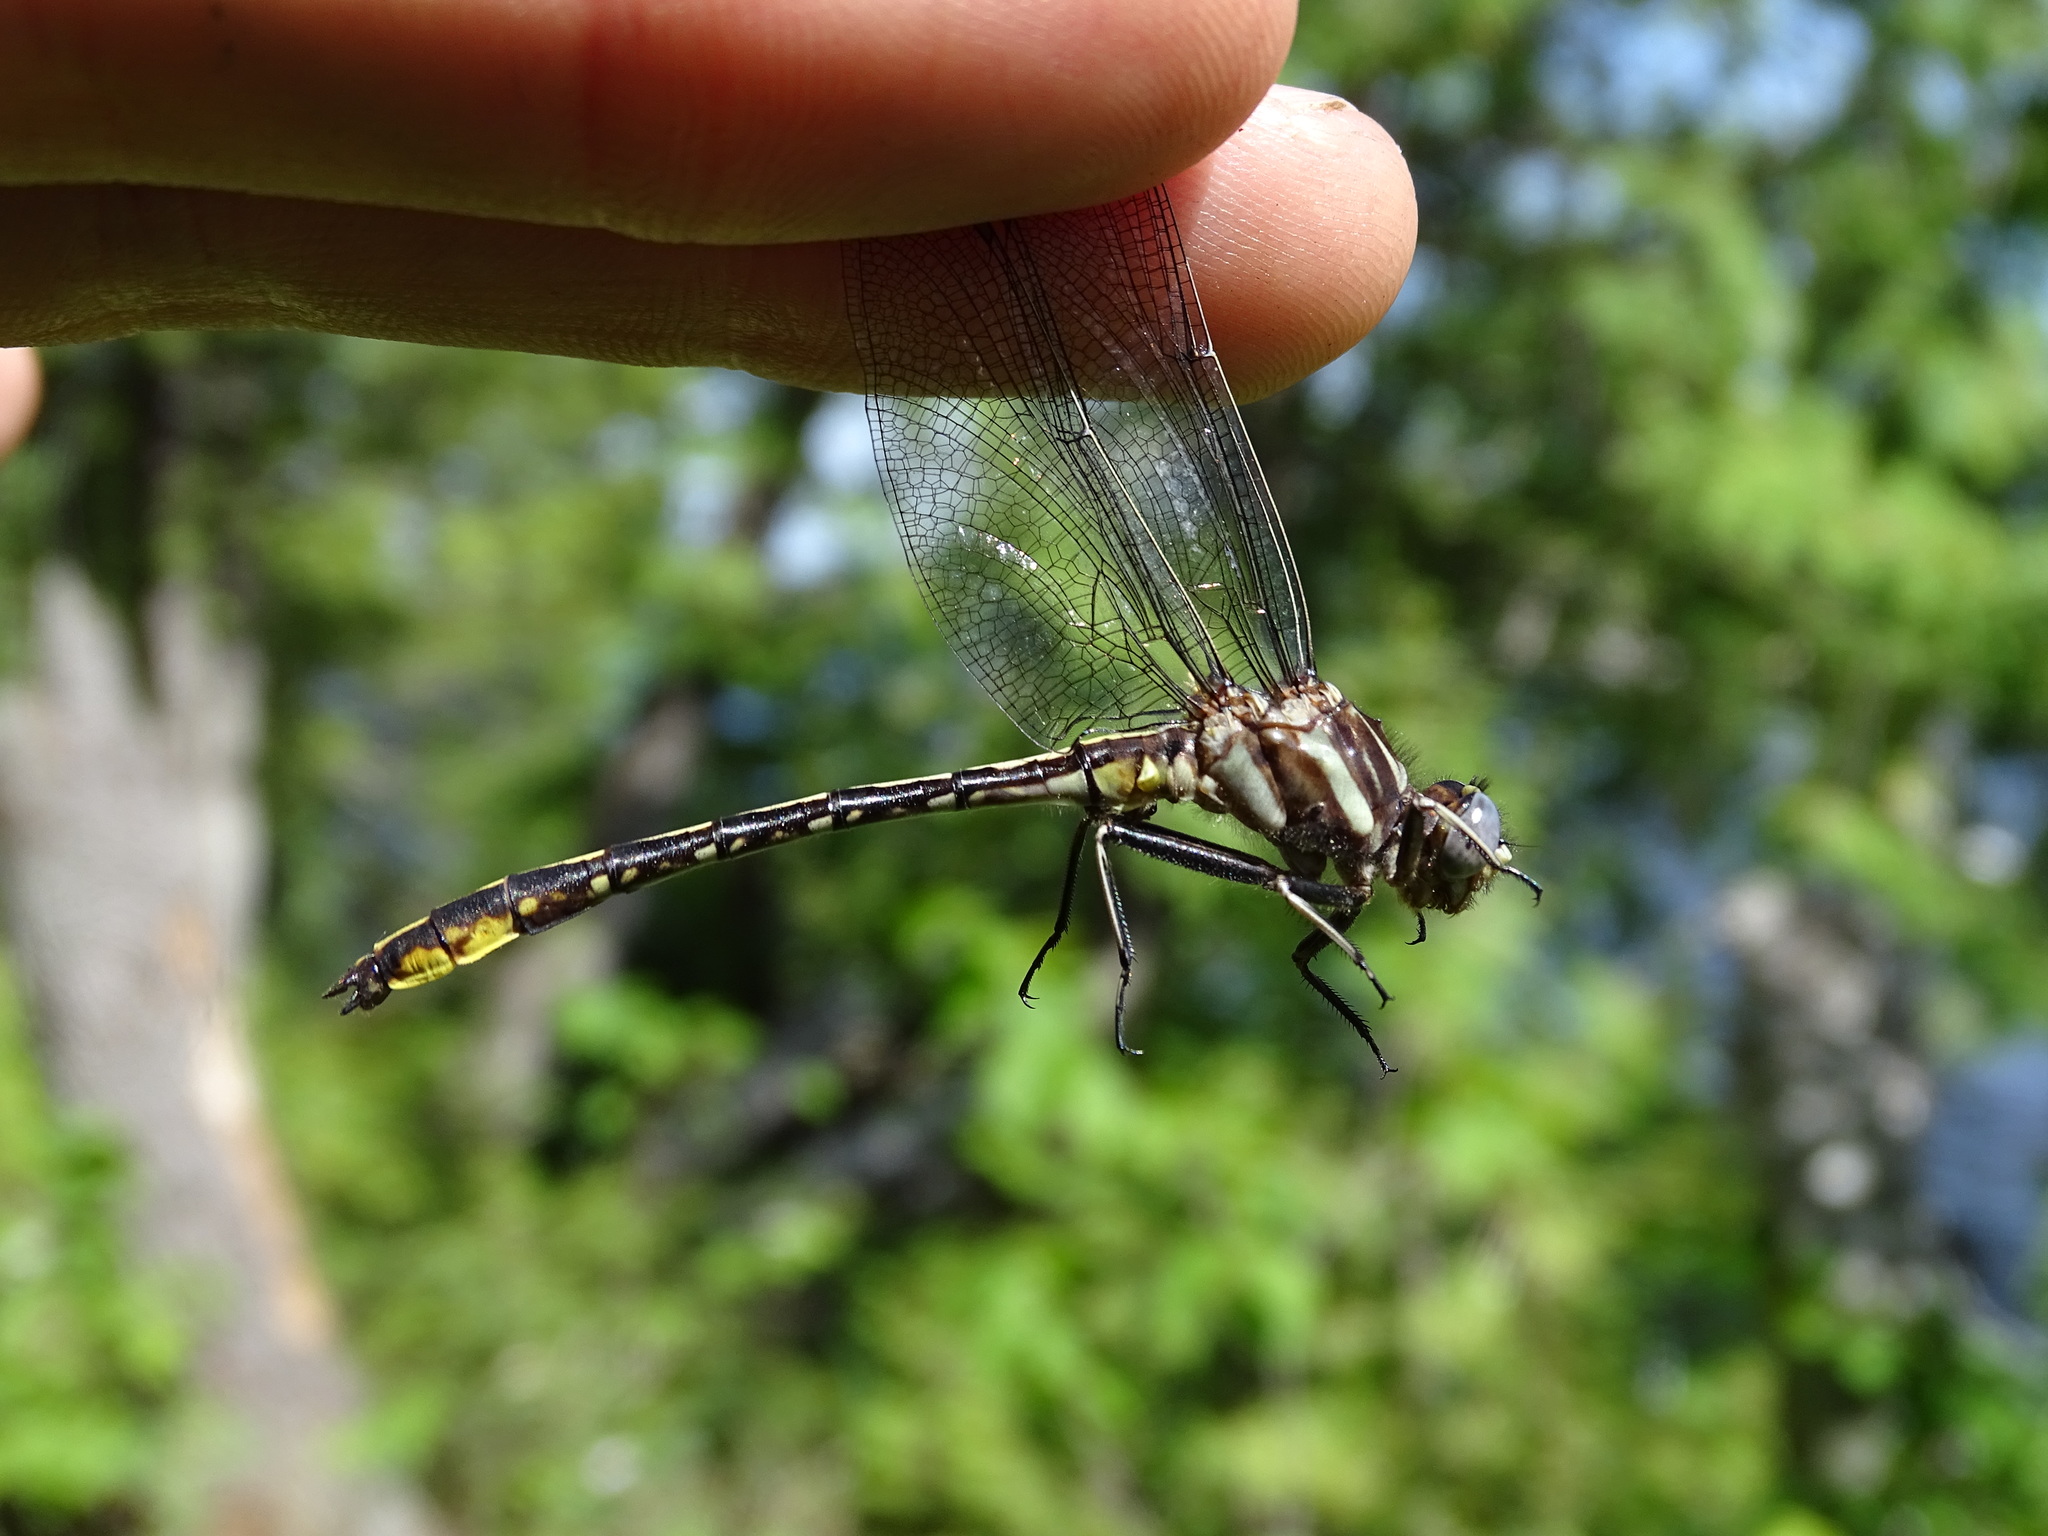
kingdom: Animalia
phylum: Arthropoda
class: Insecta
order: Odonata
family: Gomphidae
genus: Phanogomphus
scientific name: Phanogomphus exilis
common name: Lancet clubtail
